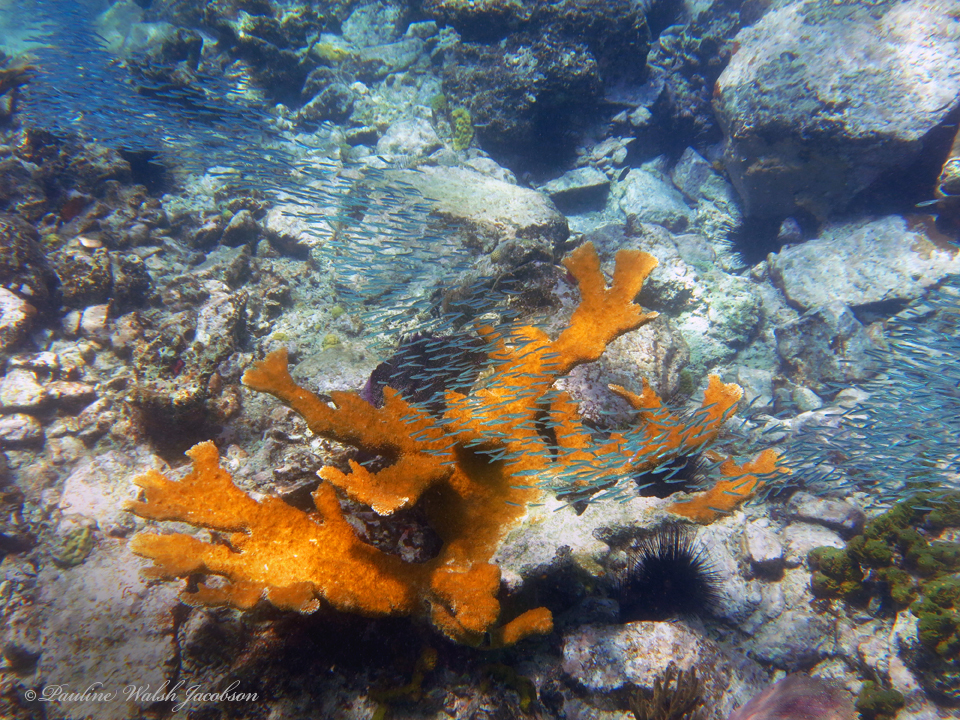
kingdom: Animalia
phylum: Cnidaria
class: Anthozoa
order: Scleractinia
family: Acroporidae
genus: Acropora
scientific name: Acropora palmata
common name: Elkhorn coral
